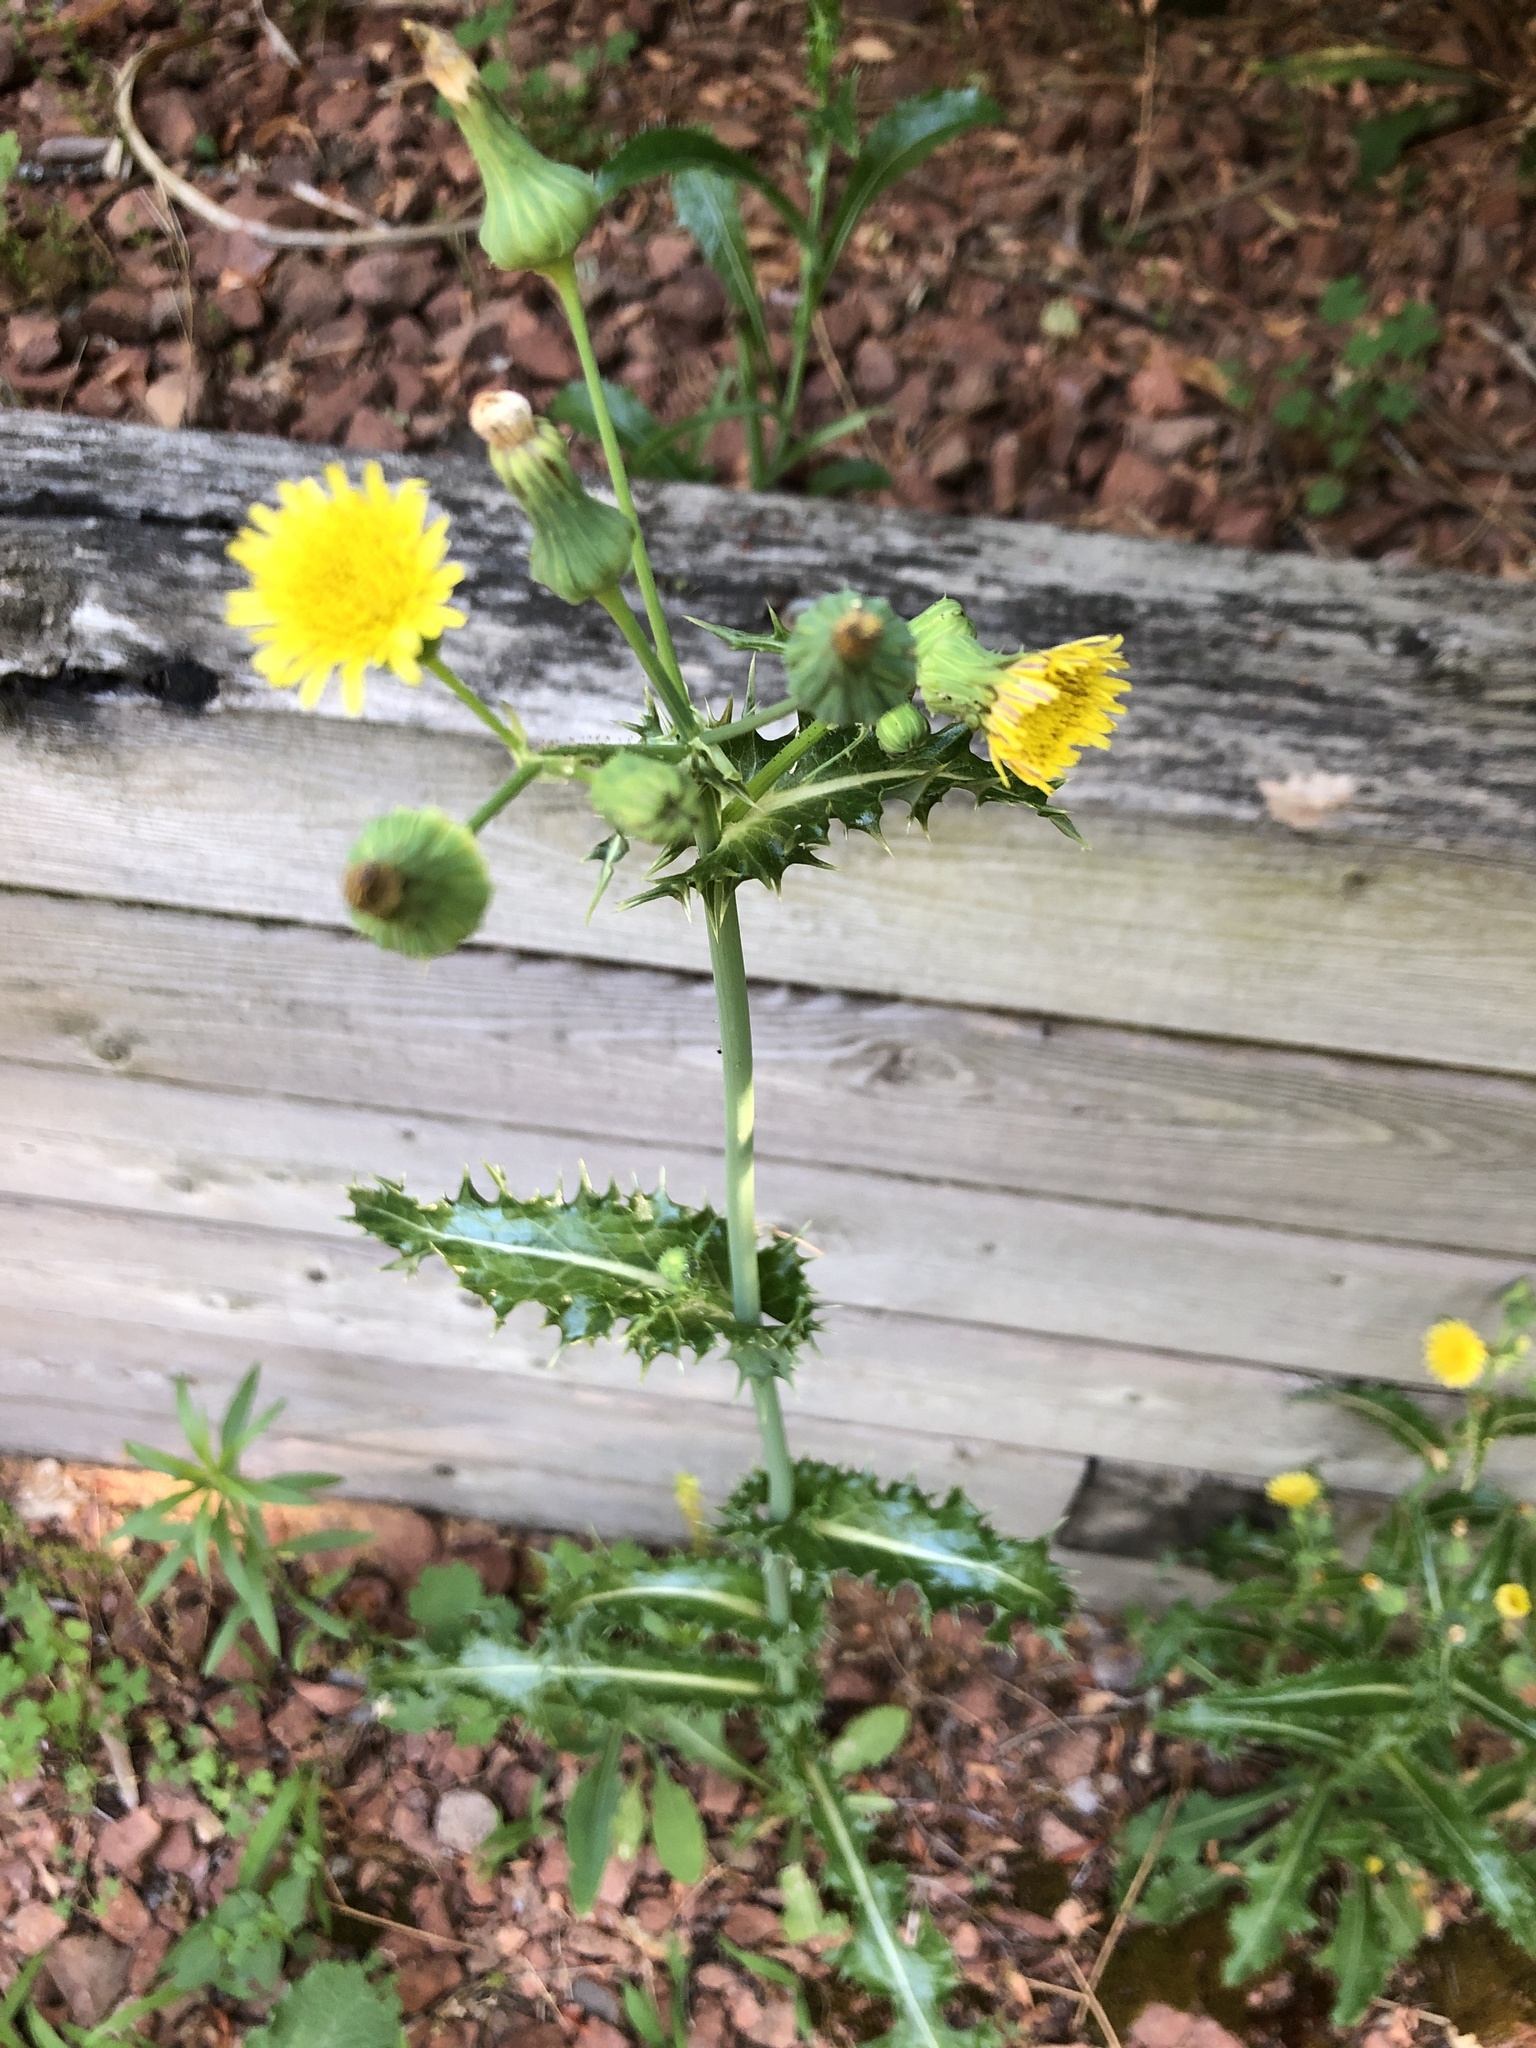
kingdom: Plantae
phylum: Tracheophyta
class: Magnoliopsida
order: Asterales
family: Asteraceae
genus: Sonchus
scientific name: Sonchus asper
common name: Prickly sow-thistle
